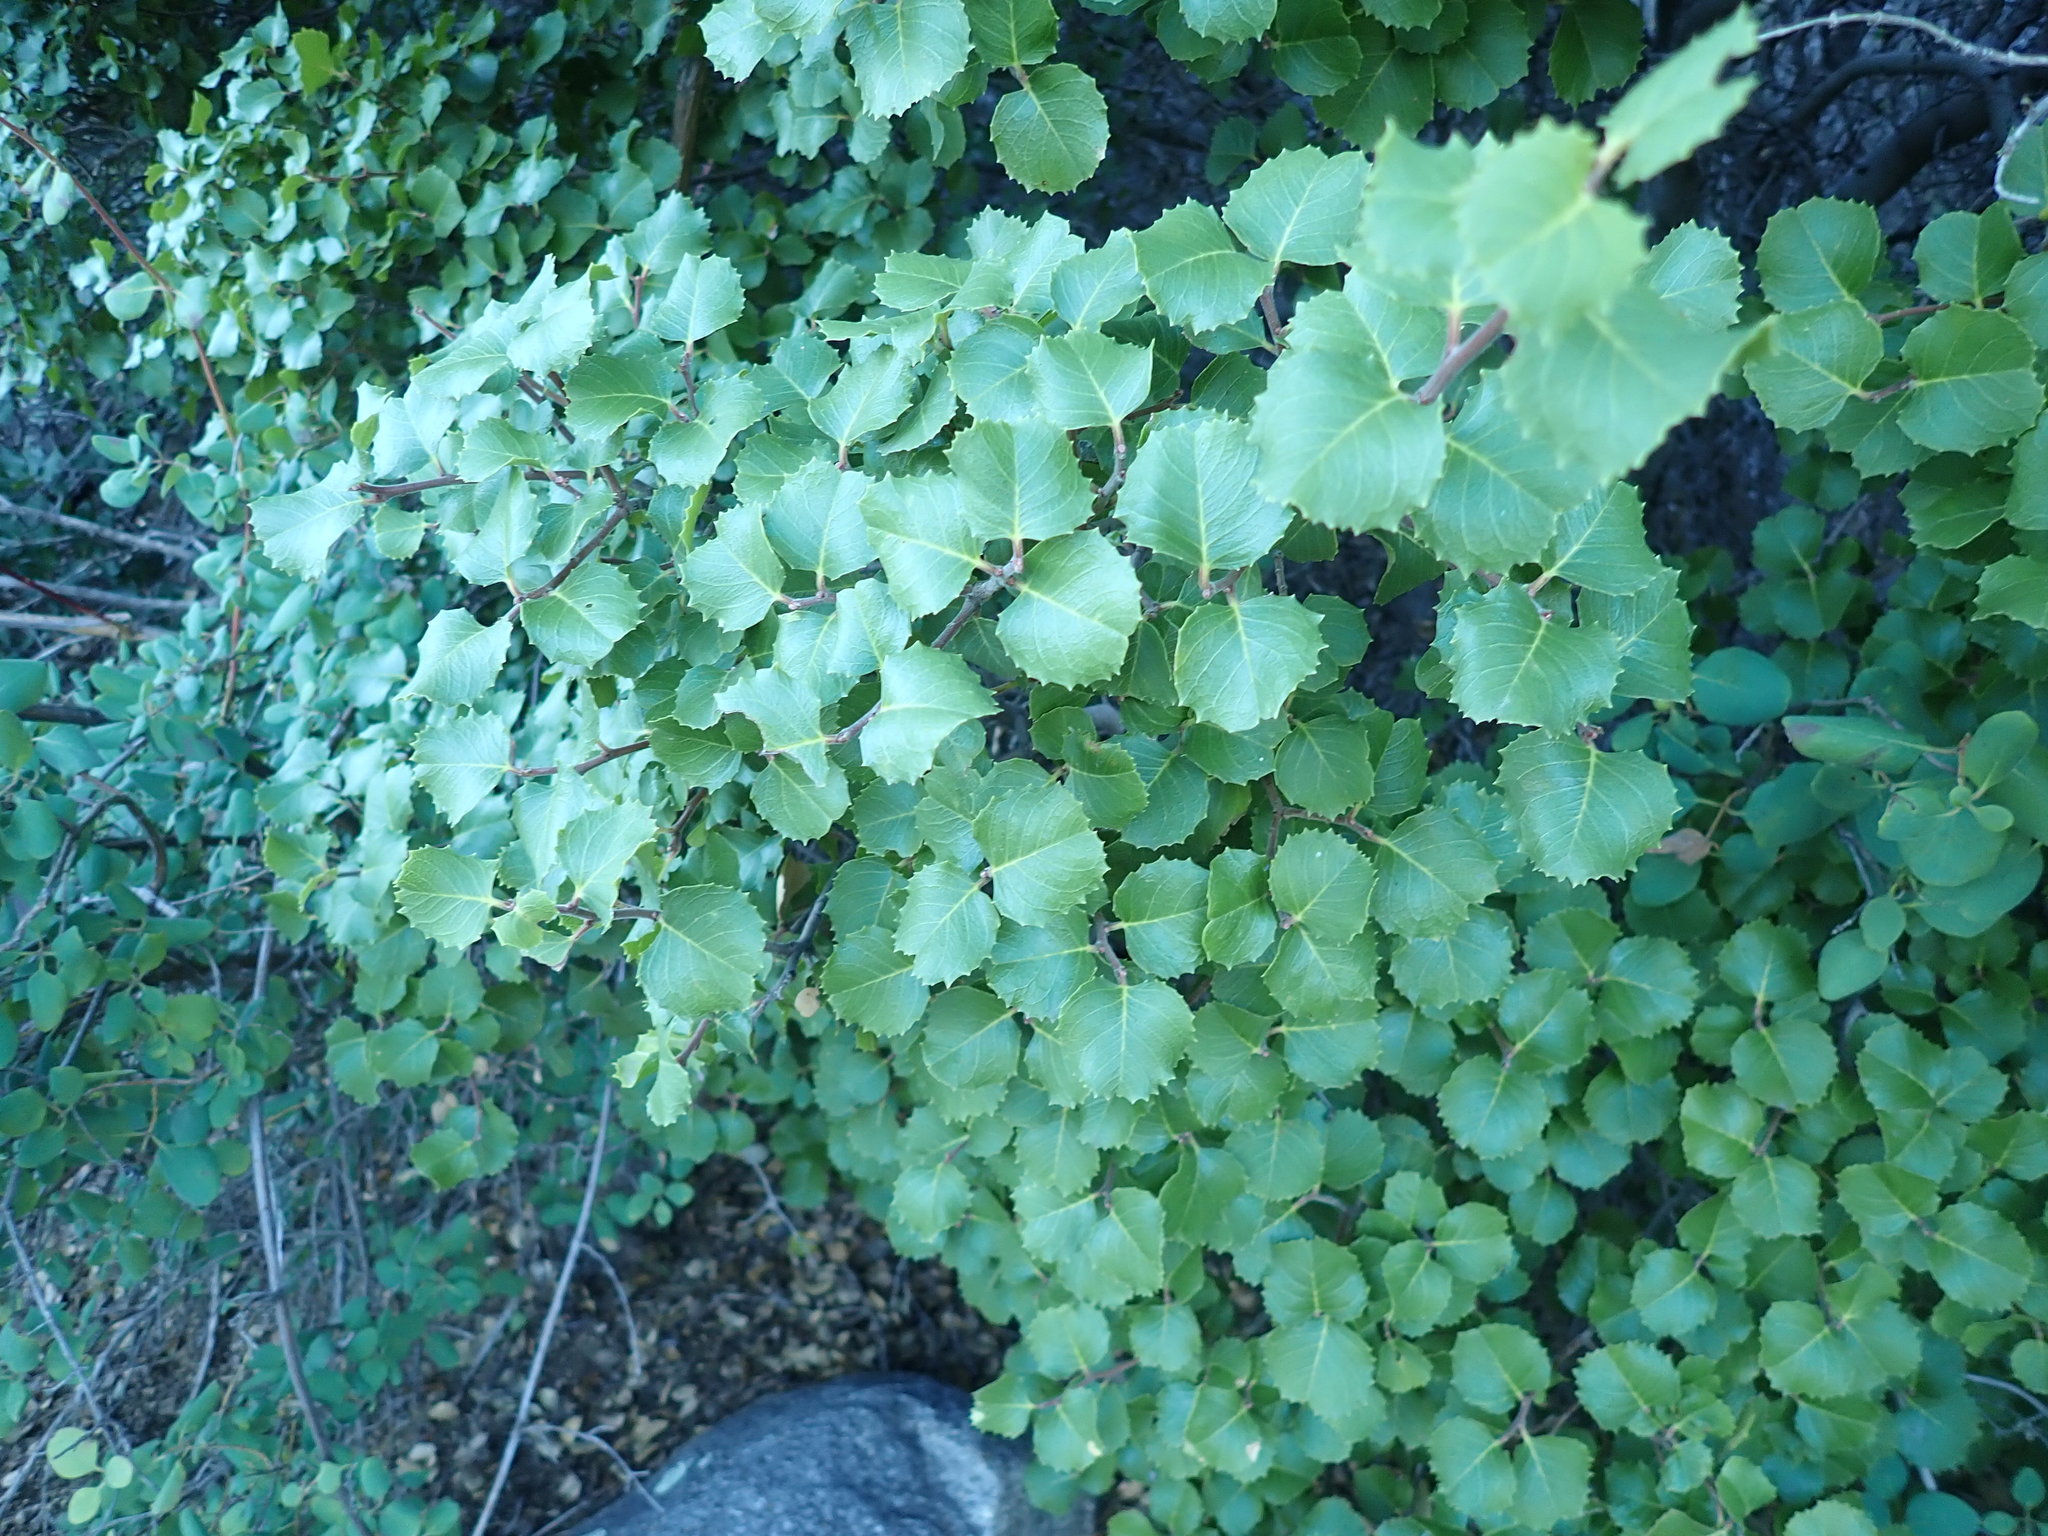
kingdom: Plantae
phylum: Tracheophyta
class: Magnoliopsida
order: Rosales
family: Rosaceae
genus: Prunus
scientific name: Prunus ilicifolia
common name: Hollyleaf cherry
